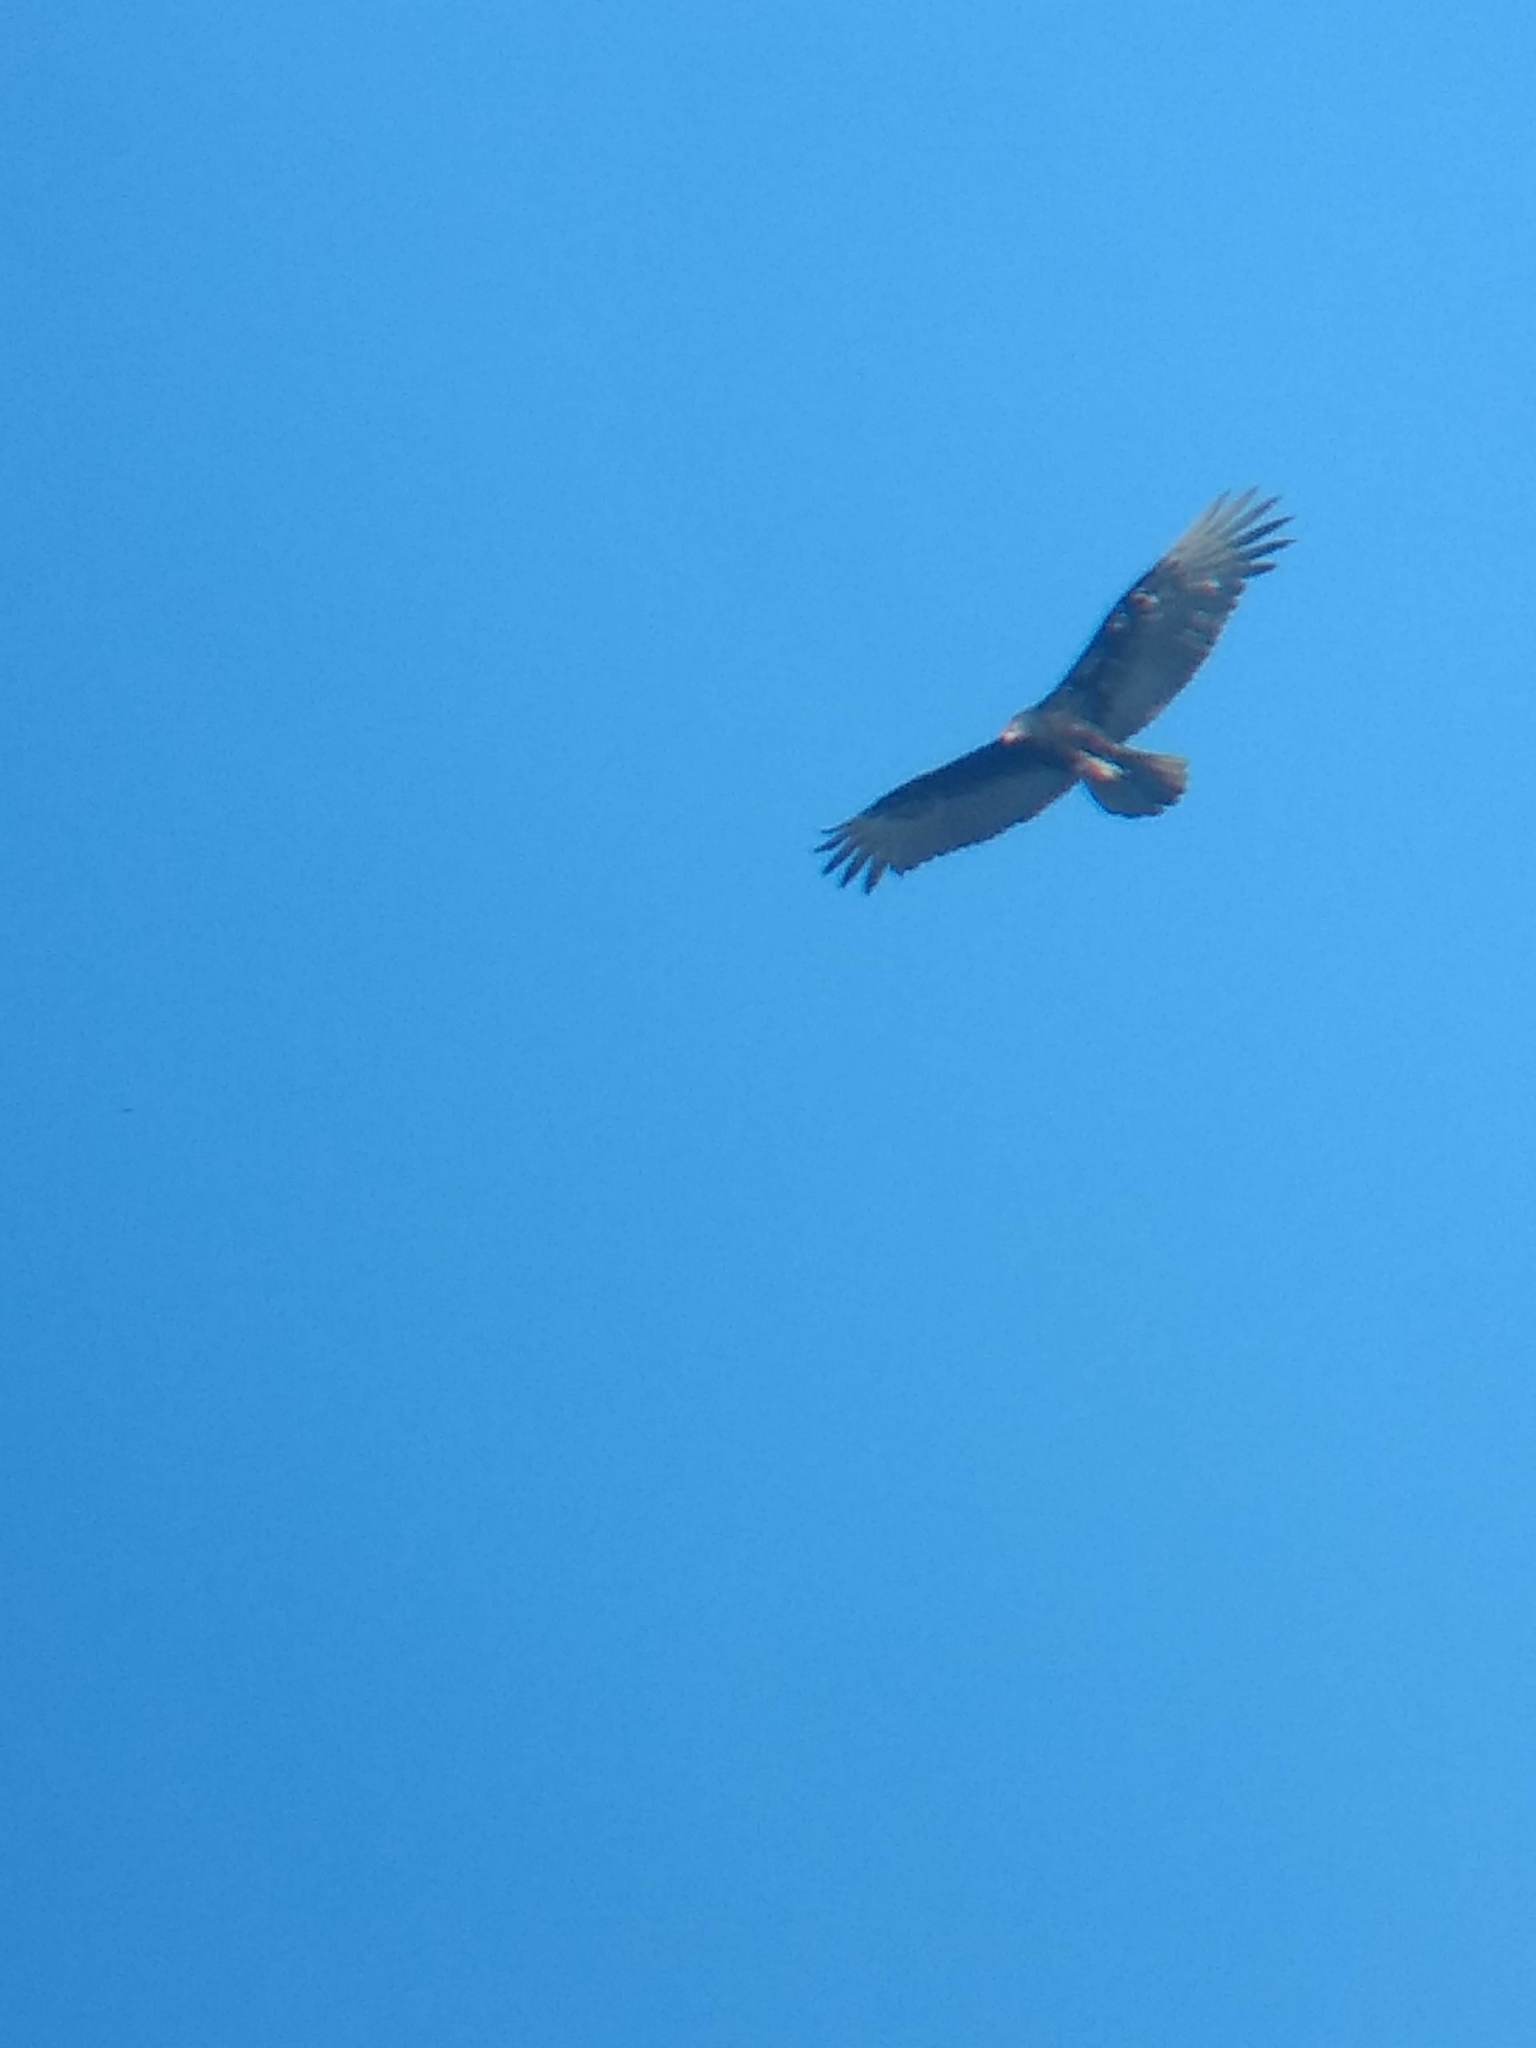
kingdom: Animalia
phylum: Chordata
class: Aves
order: Accipitriformes
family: Cathartidae
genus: Cathartes
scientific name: Cathartes aura
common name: Turkey vulture
